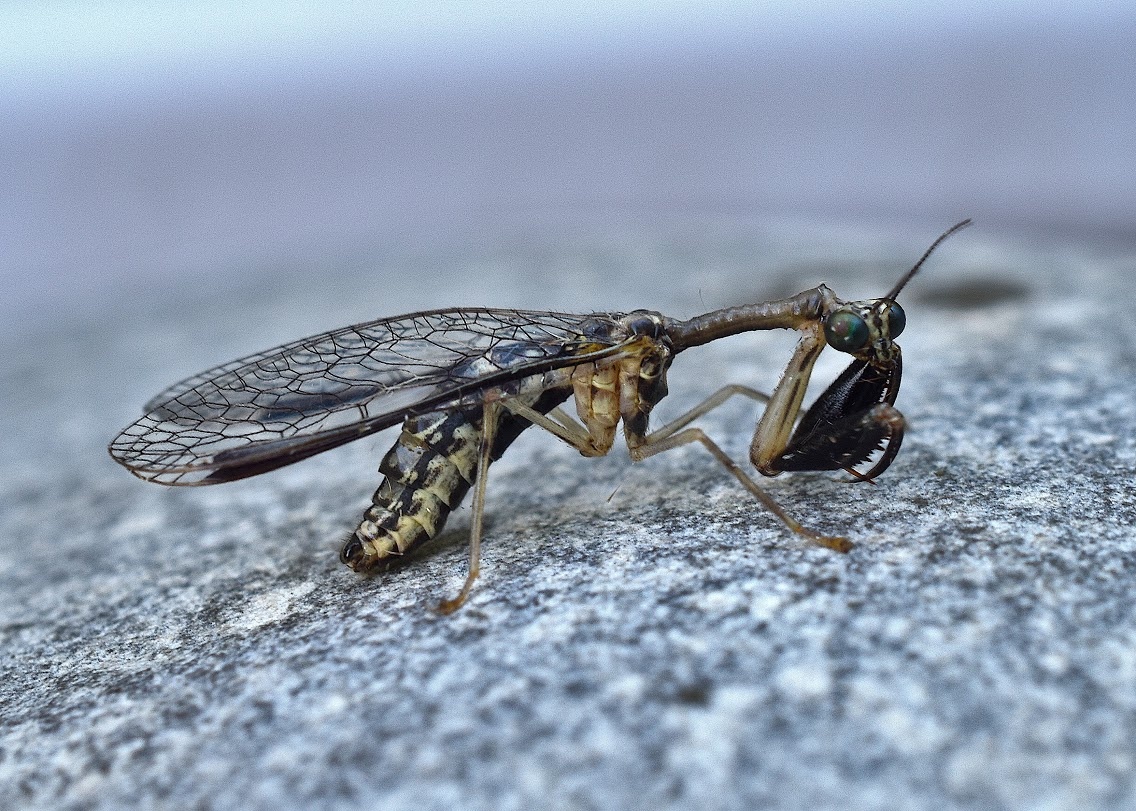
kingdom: Animalia
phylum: Arthropoda
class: Insecta
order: Neuroptera
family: Mantispidae
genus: Dicromantispa
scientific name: Dicromantispa sayi
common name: Say's mantidfly
